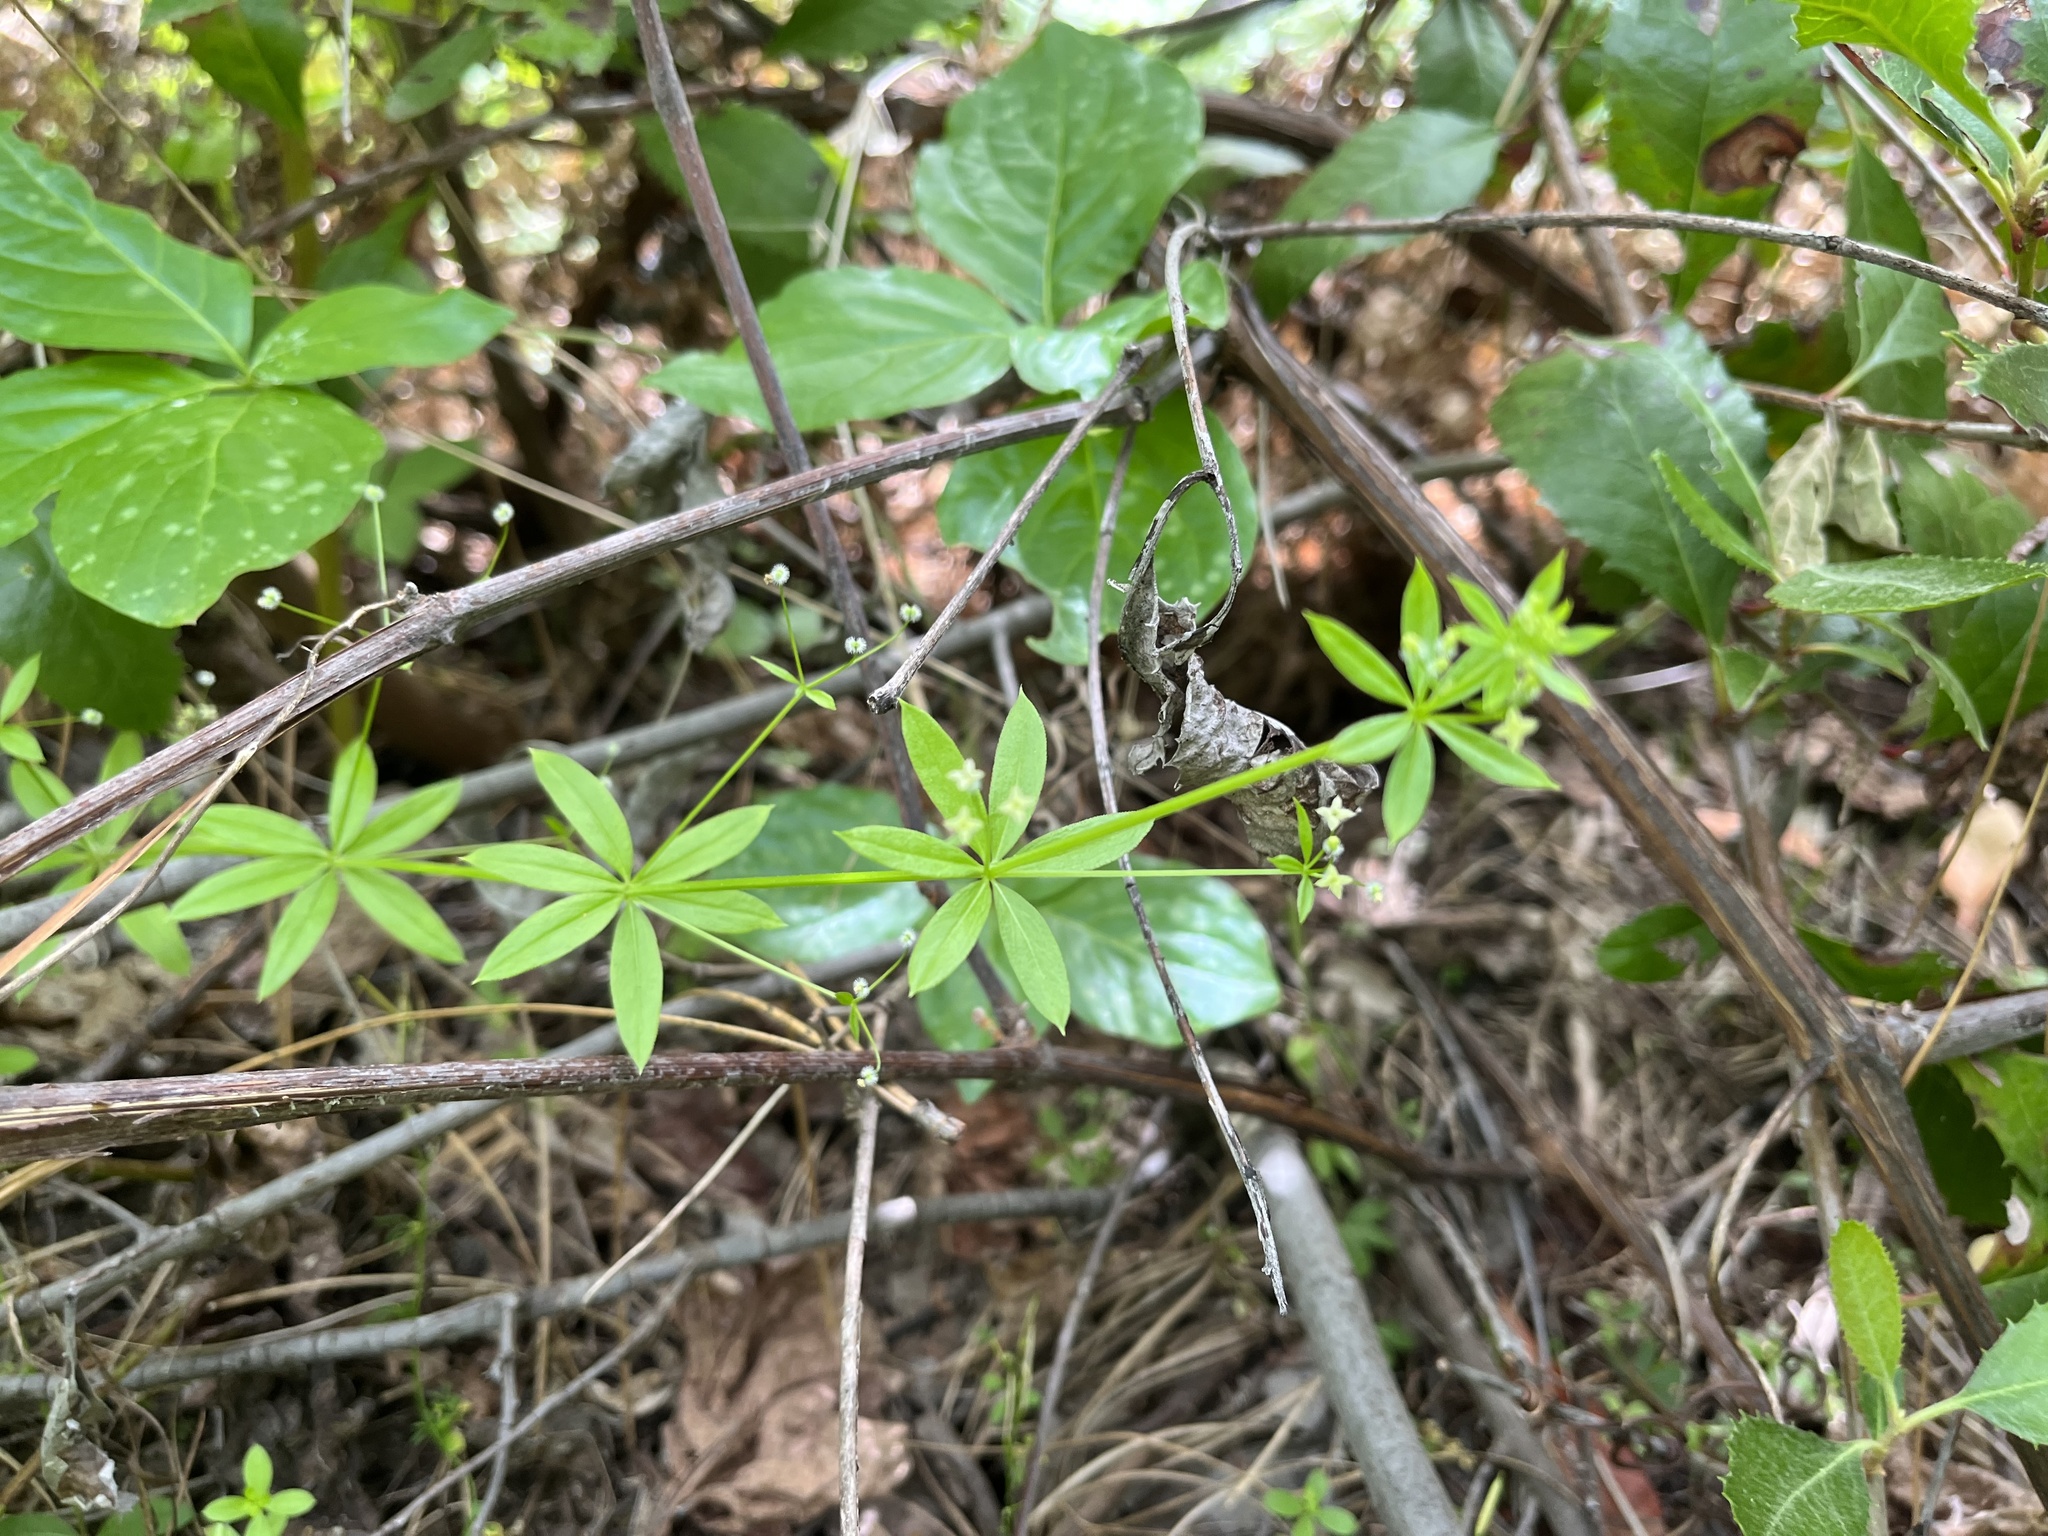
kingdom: Plantae
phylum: Tracheophyta
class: Magnoliopsida
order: Gentianales
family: Rubiaceae
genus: Galium
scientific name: Galium triflorum
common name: Fragrant bedstraw
